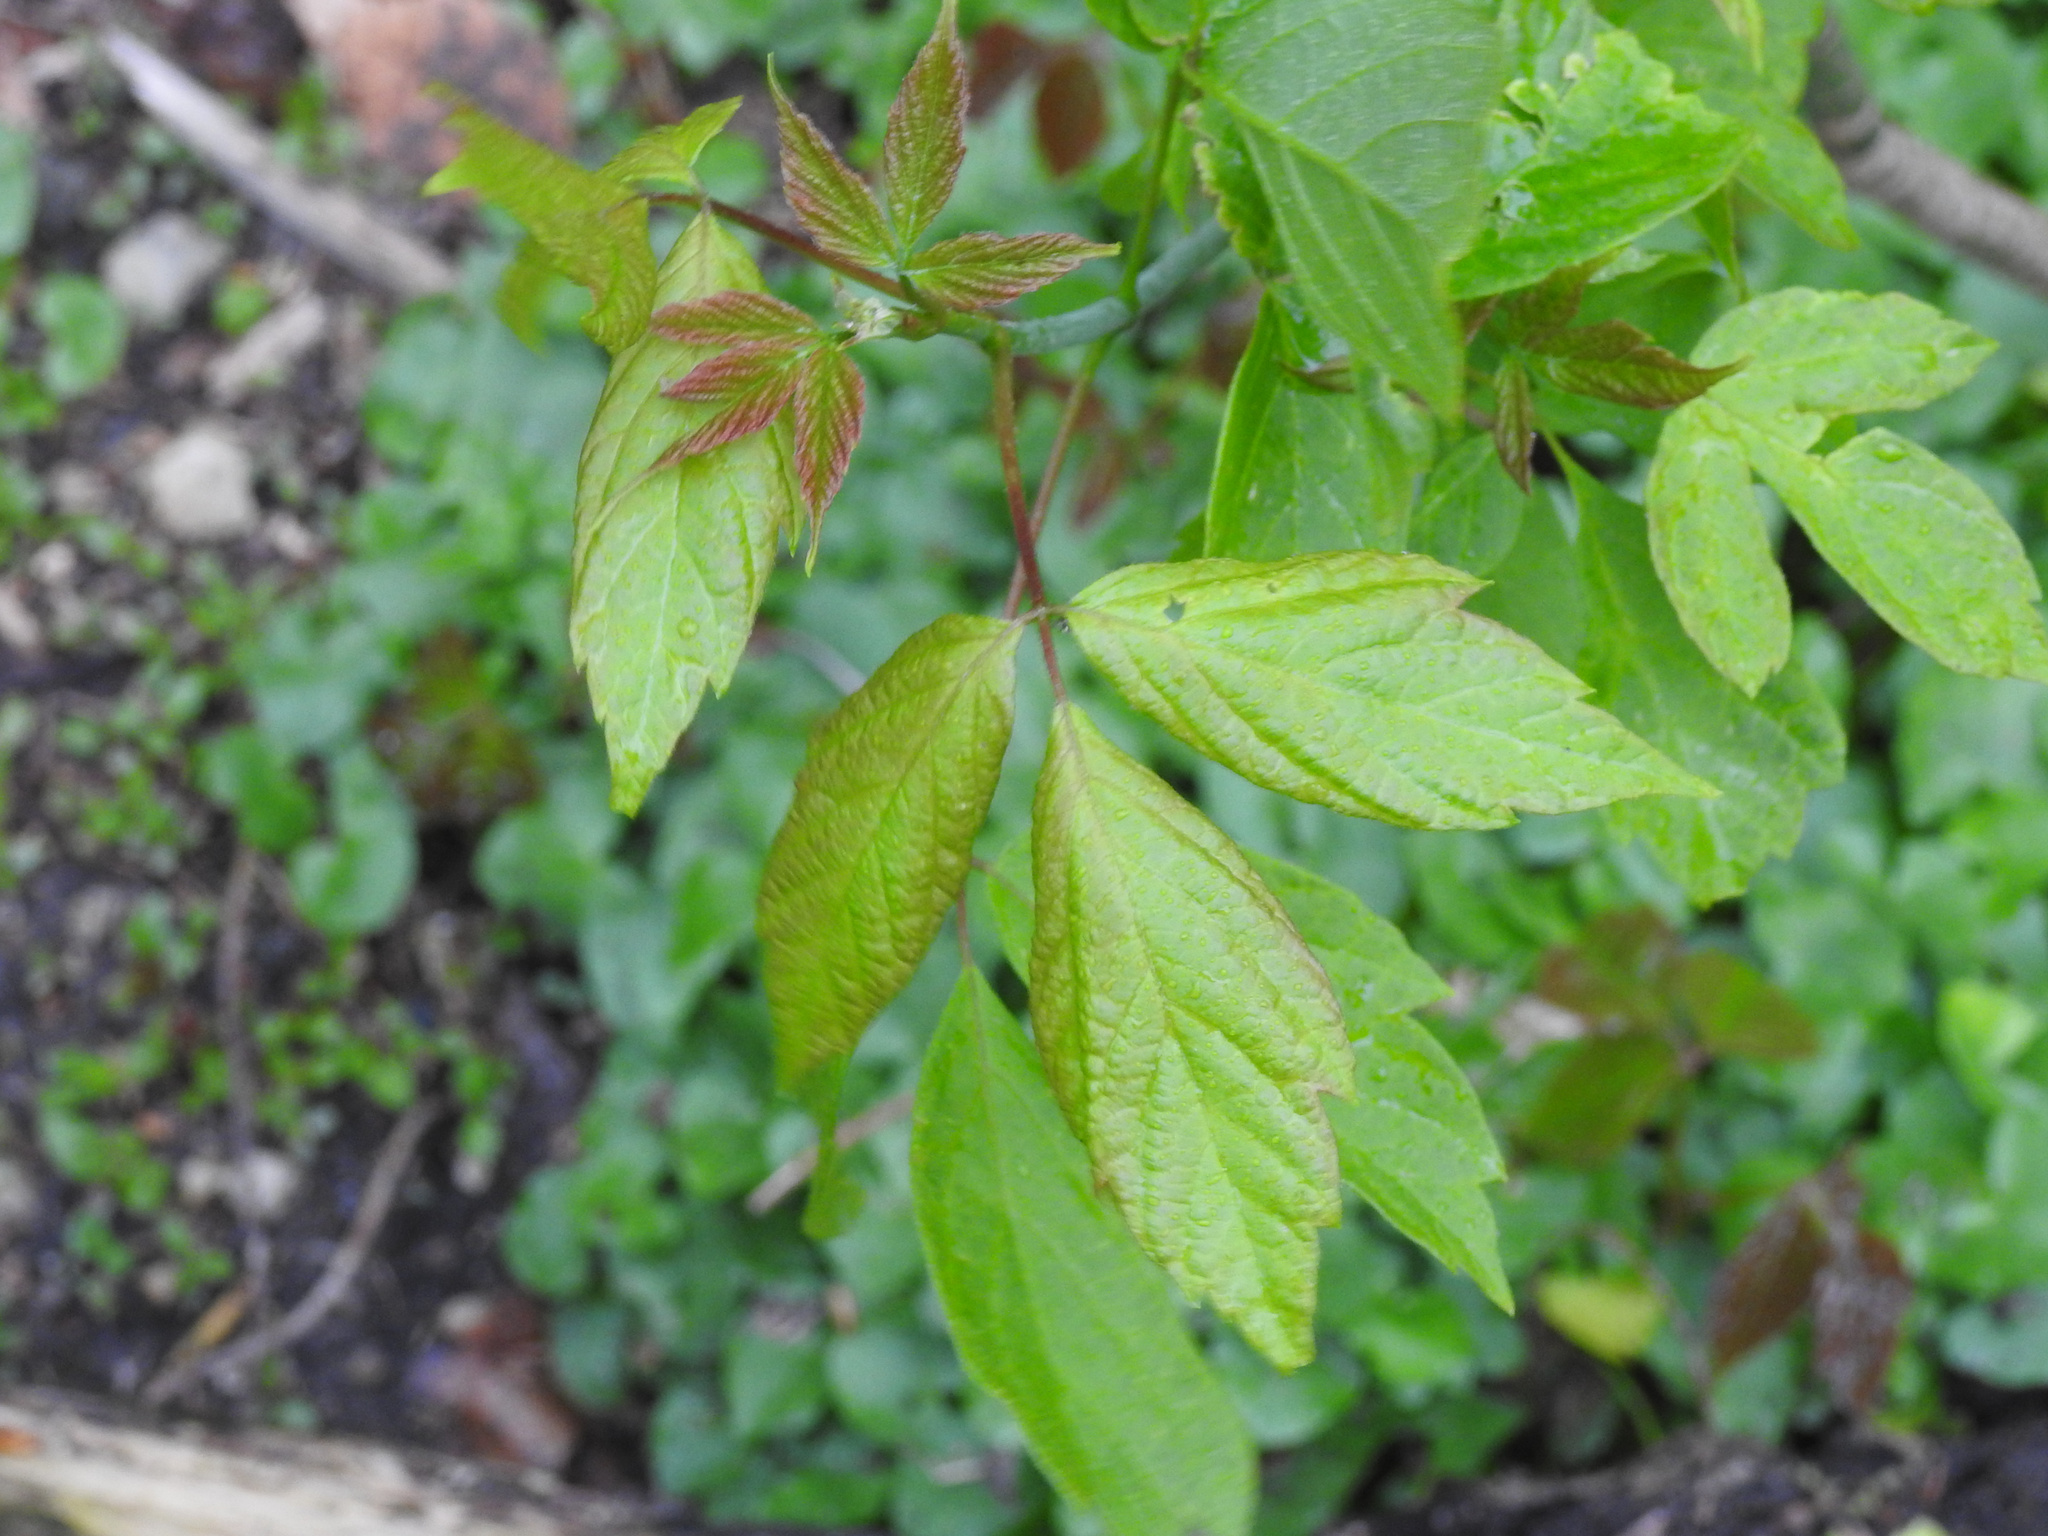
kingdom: Plantae
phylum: Tracheophyta
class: Magnoliopsida
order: Sapindales
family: Sapindaceae
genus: Acer
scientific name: Acer negundo
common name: Ashleaf maple
